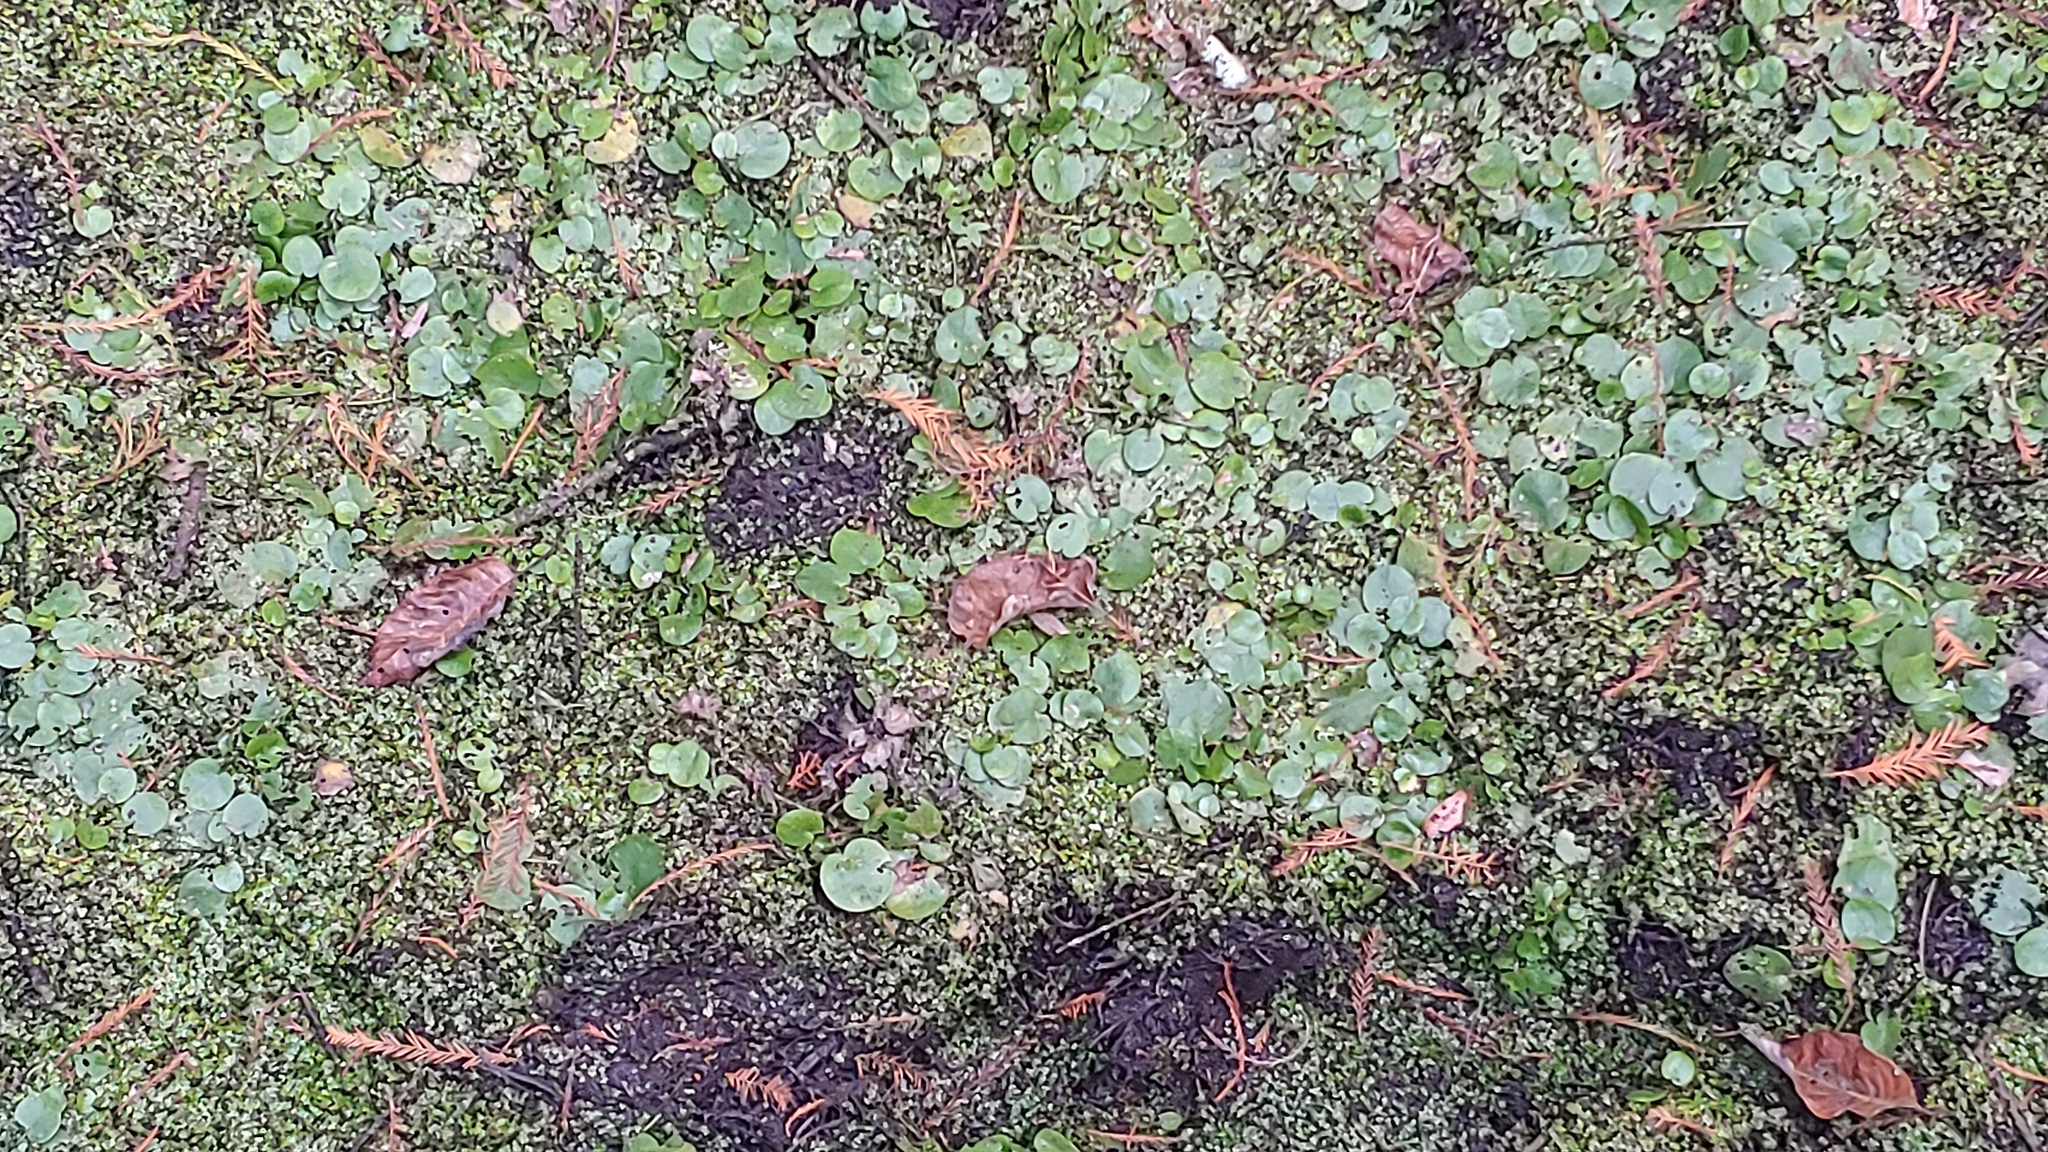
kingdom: Plantae
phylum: Tracheophyta
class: Liliopsida
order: Alismatales
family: Hydrocharitaceae
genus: Hydrocharis
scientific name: Hydrocharis spongia
